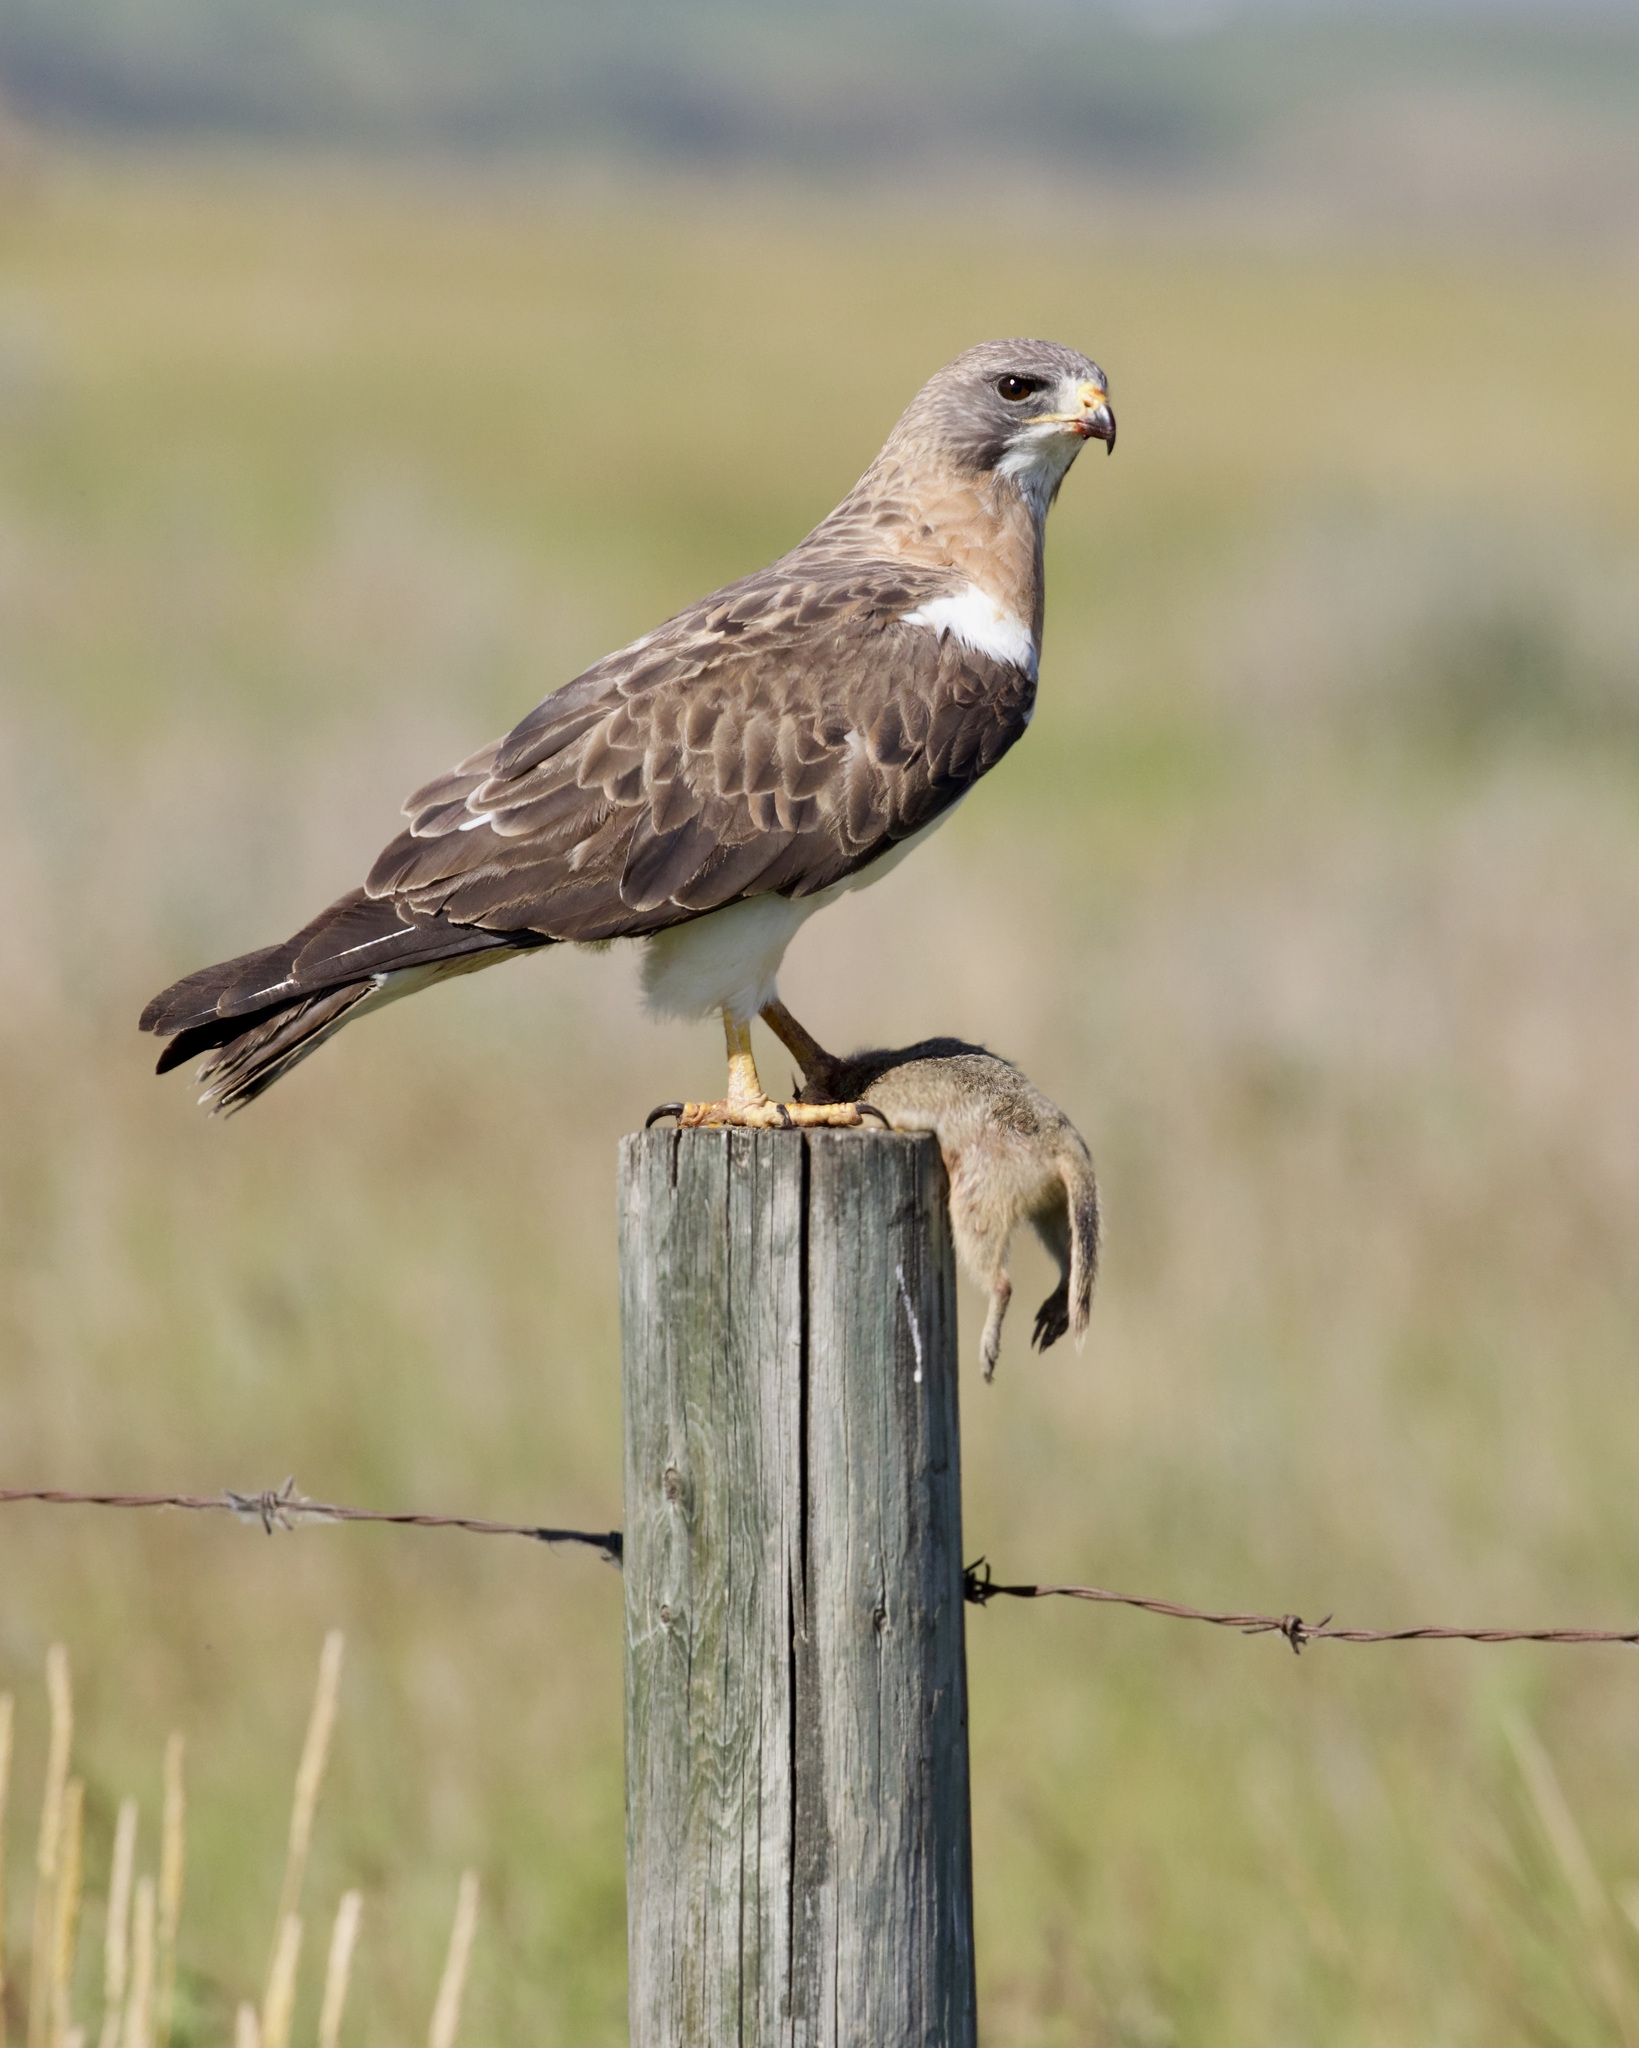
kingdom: Animalia
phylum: Chordata
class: Aves
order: Accipitriformes
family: Accipitridae
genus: Buteo
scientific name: Buteo swainsoni
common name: Swainson's hawk
